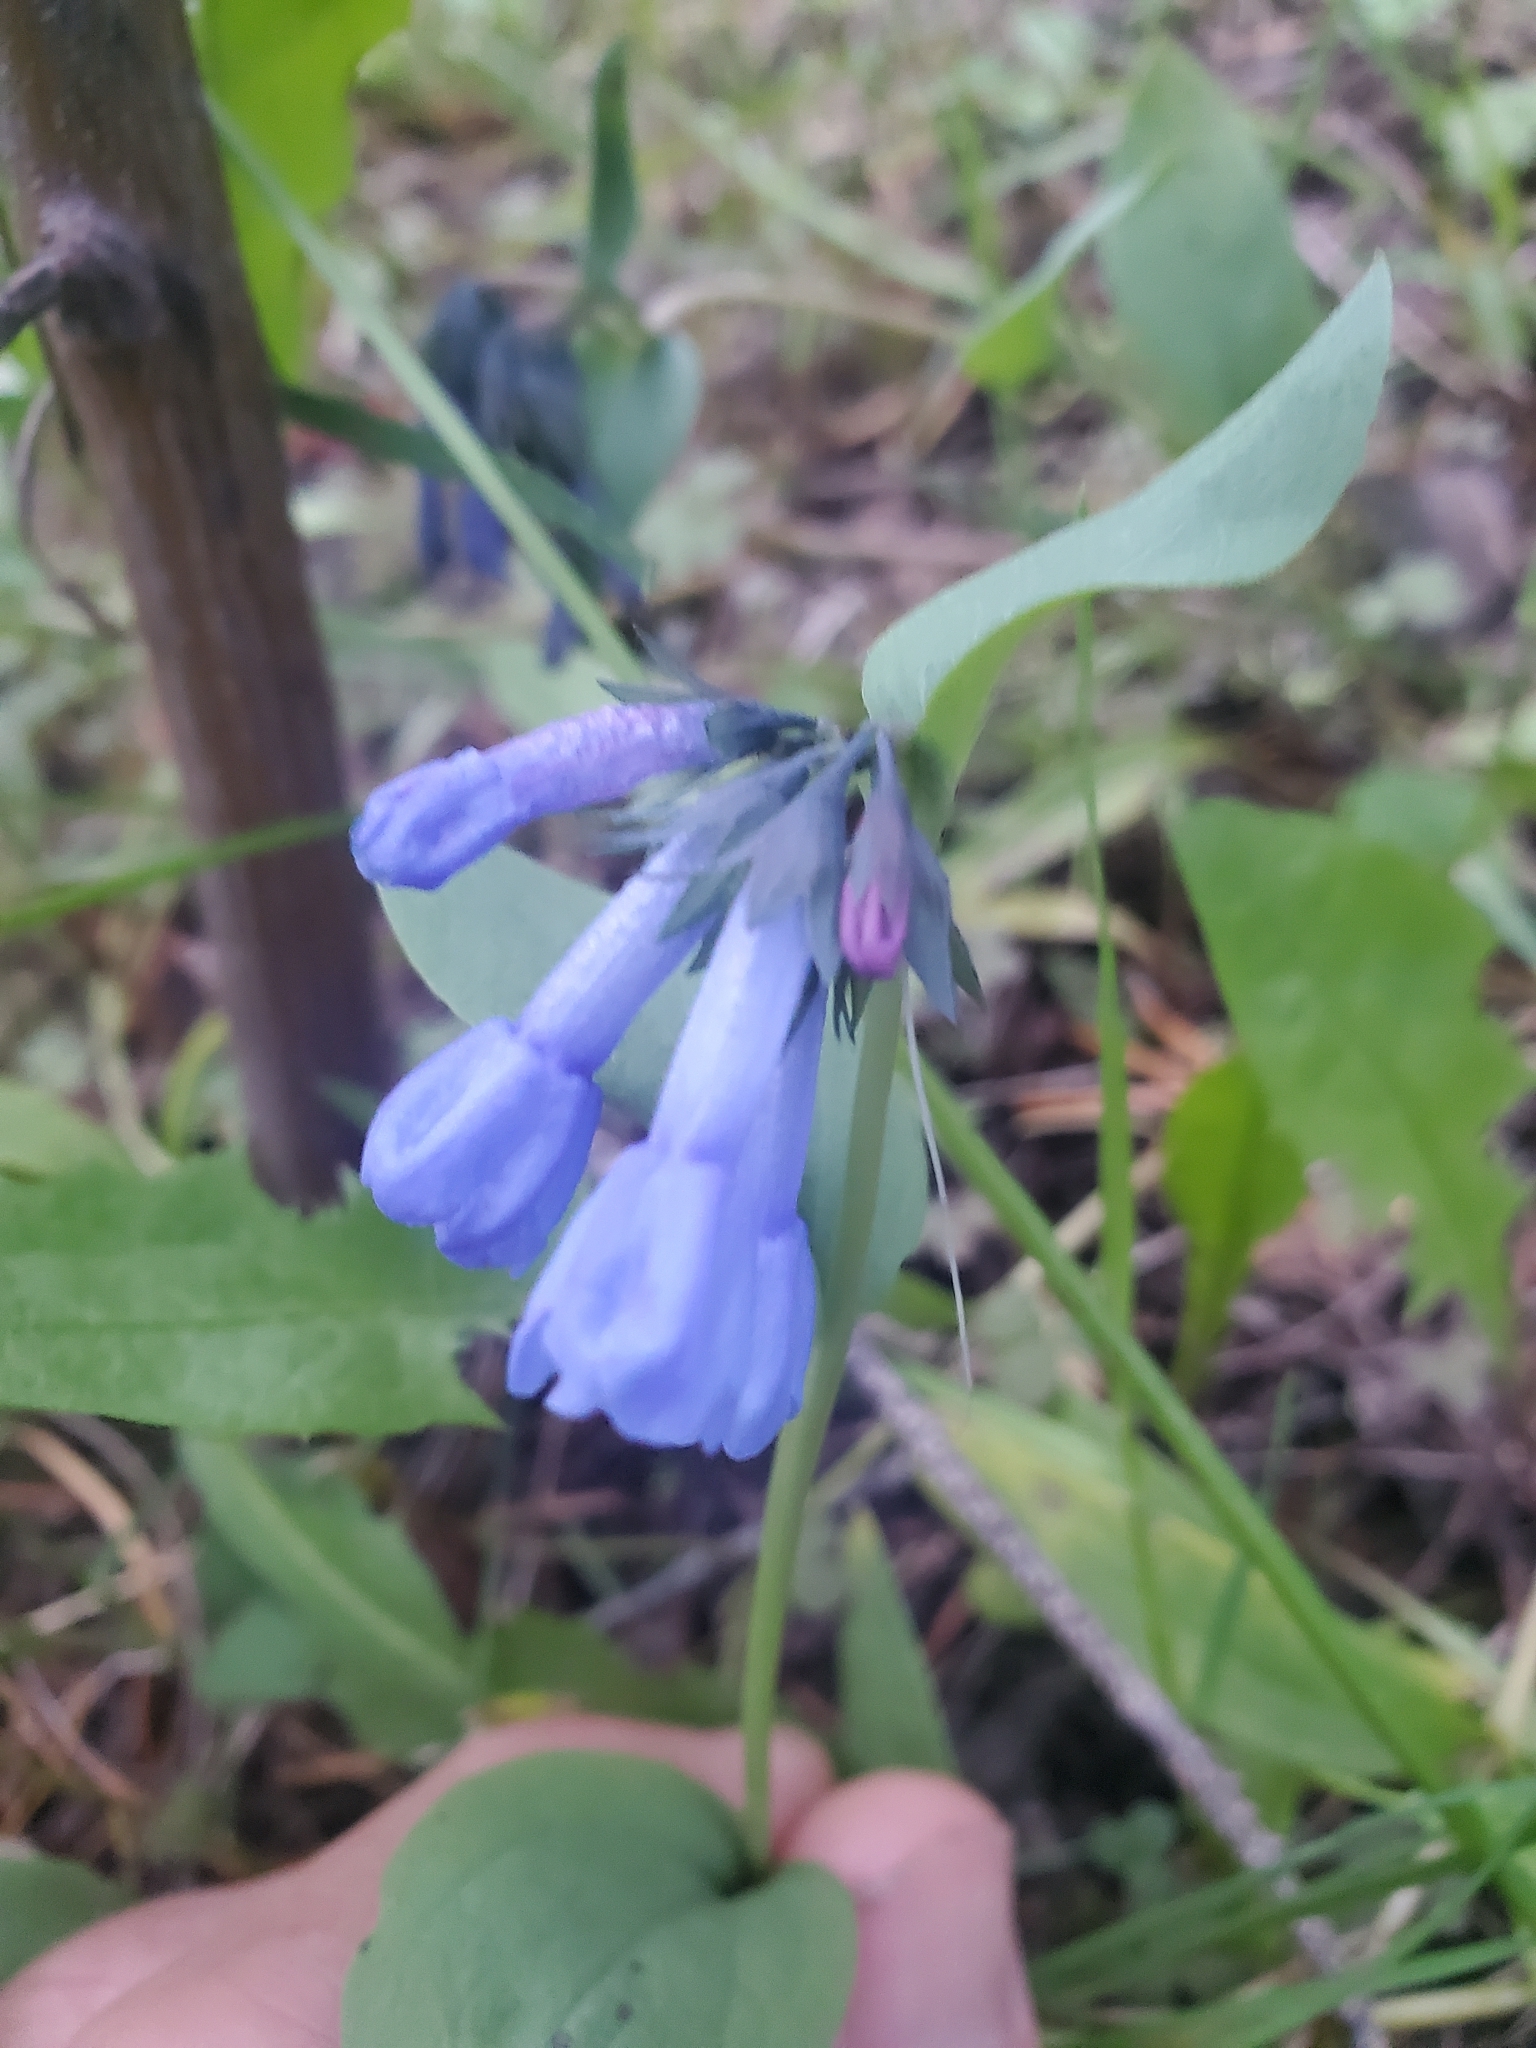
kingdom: Plantae
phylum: Tracheophyta
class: Magnoliopsida
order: Boraginales
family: Boraginaceae
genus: Mertensia
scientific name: Mertensia longiflora
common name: Large-flowered bluebells
